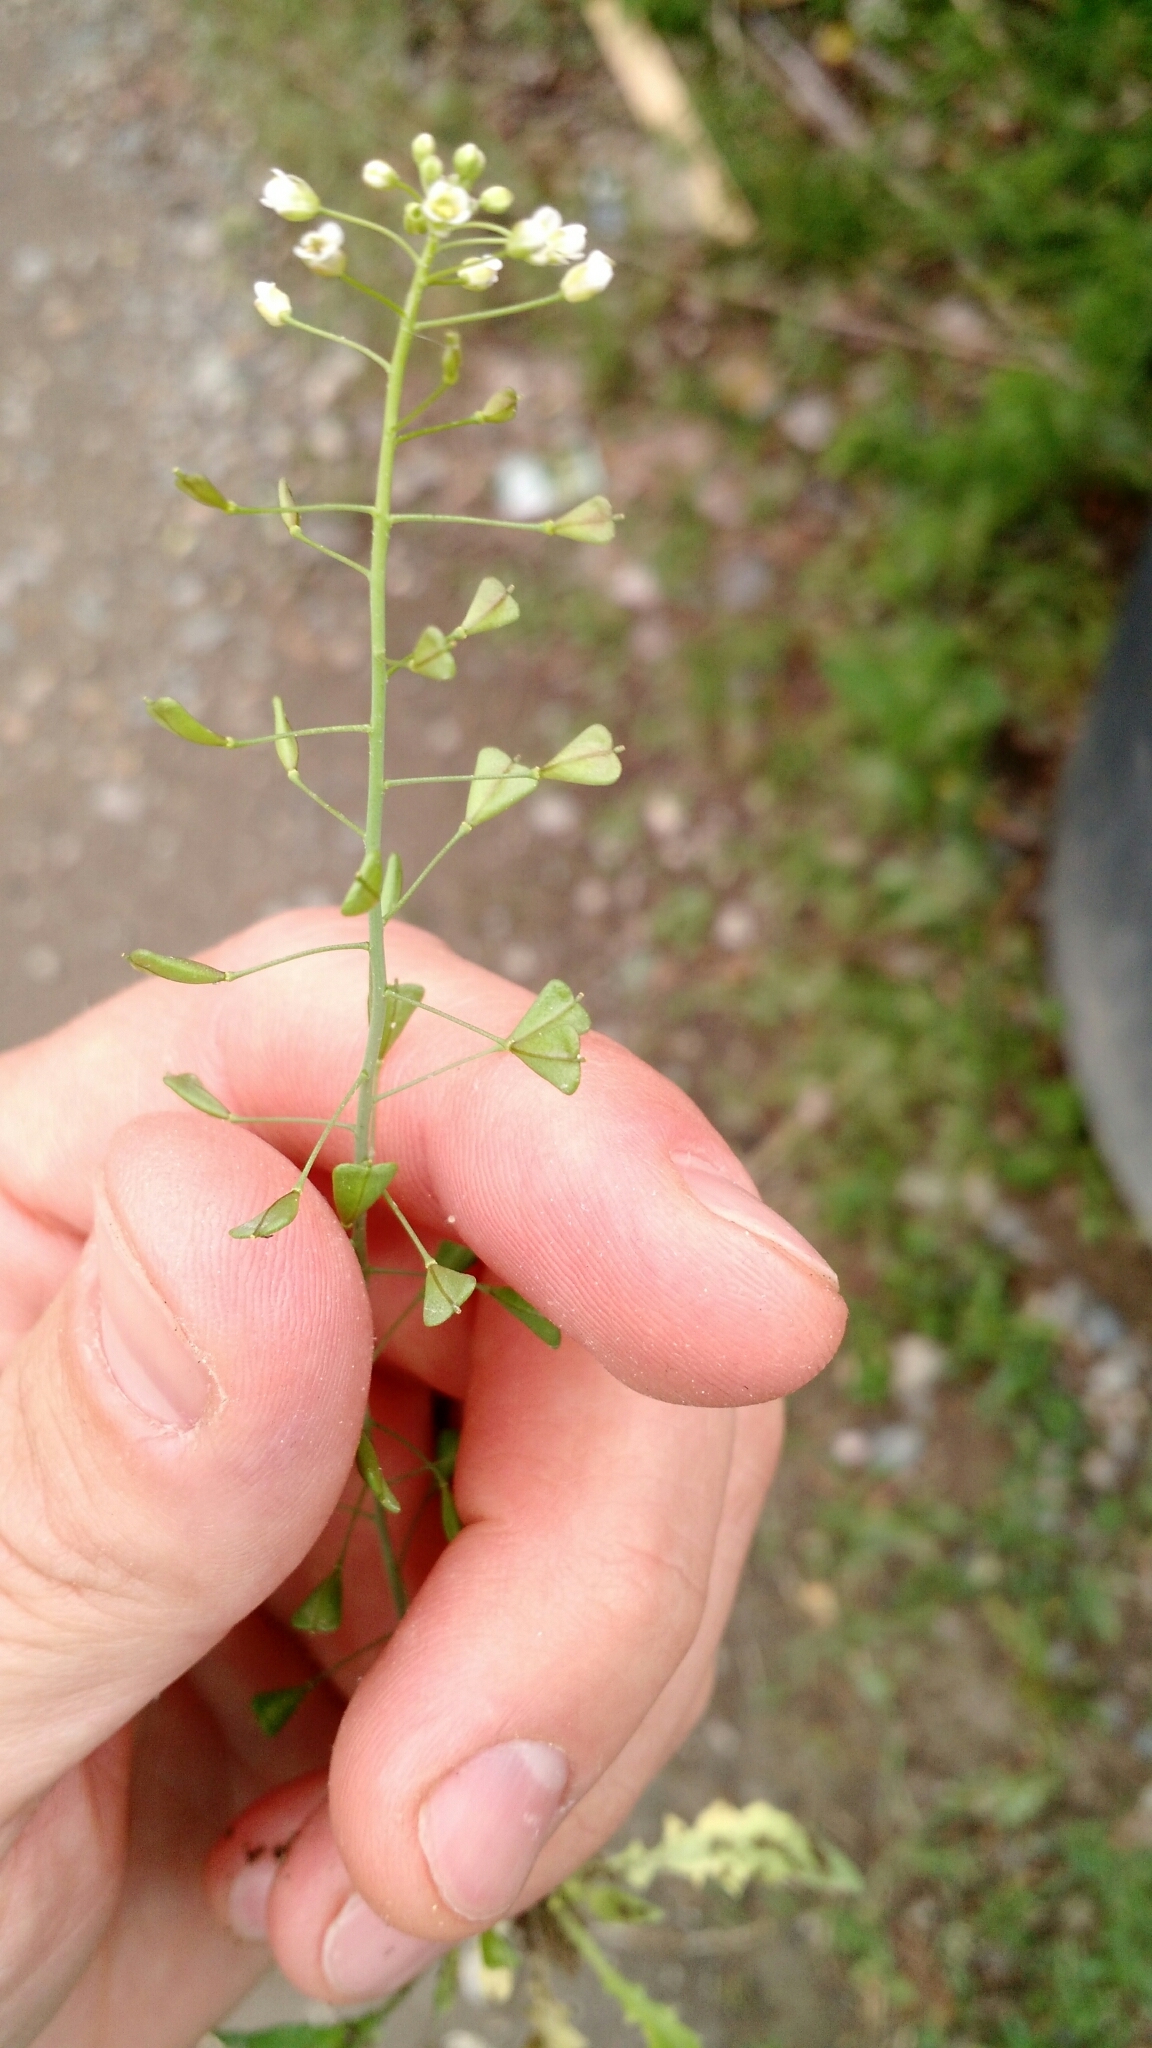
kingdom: Plantae
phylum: Tracheophyta
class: Magnoliopsida
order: Brassicales
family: Brassicaceae
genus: Capsella
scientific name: Capsella bursa-pastoris
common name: Shepherd's purse
